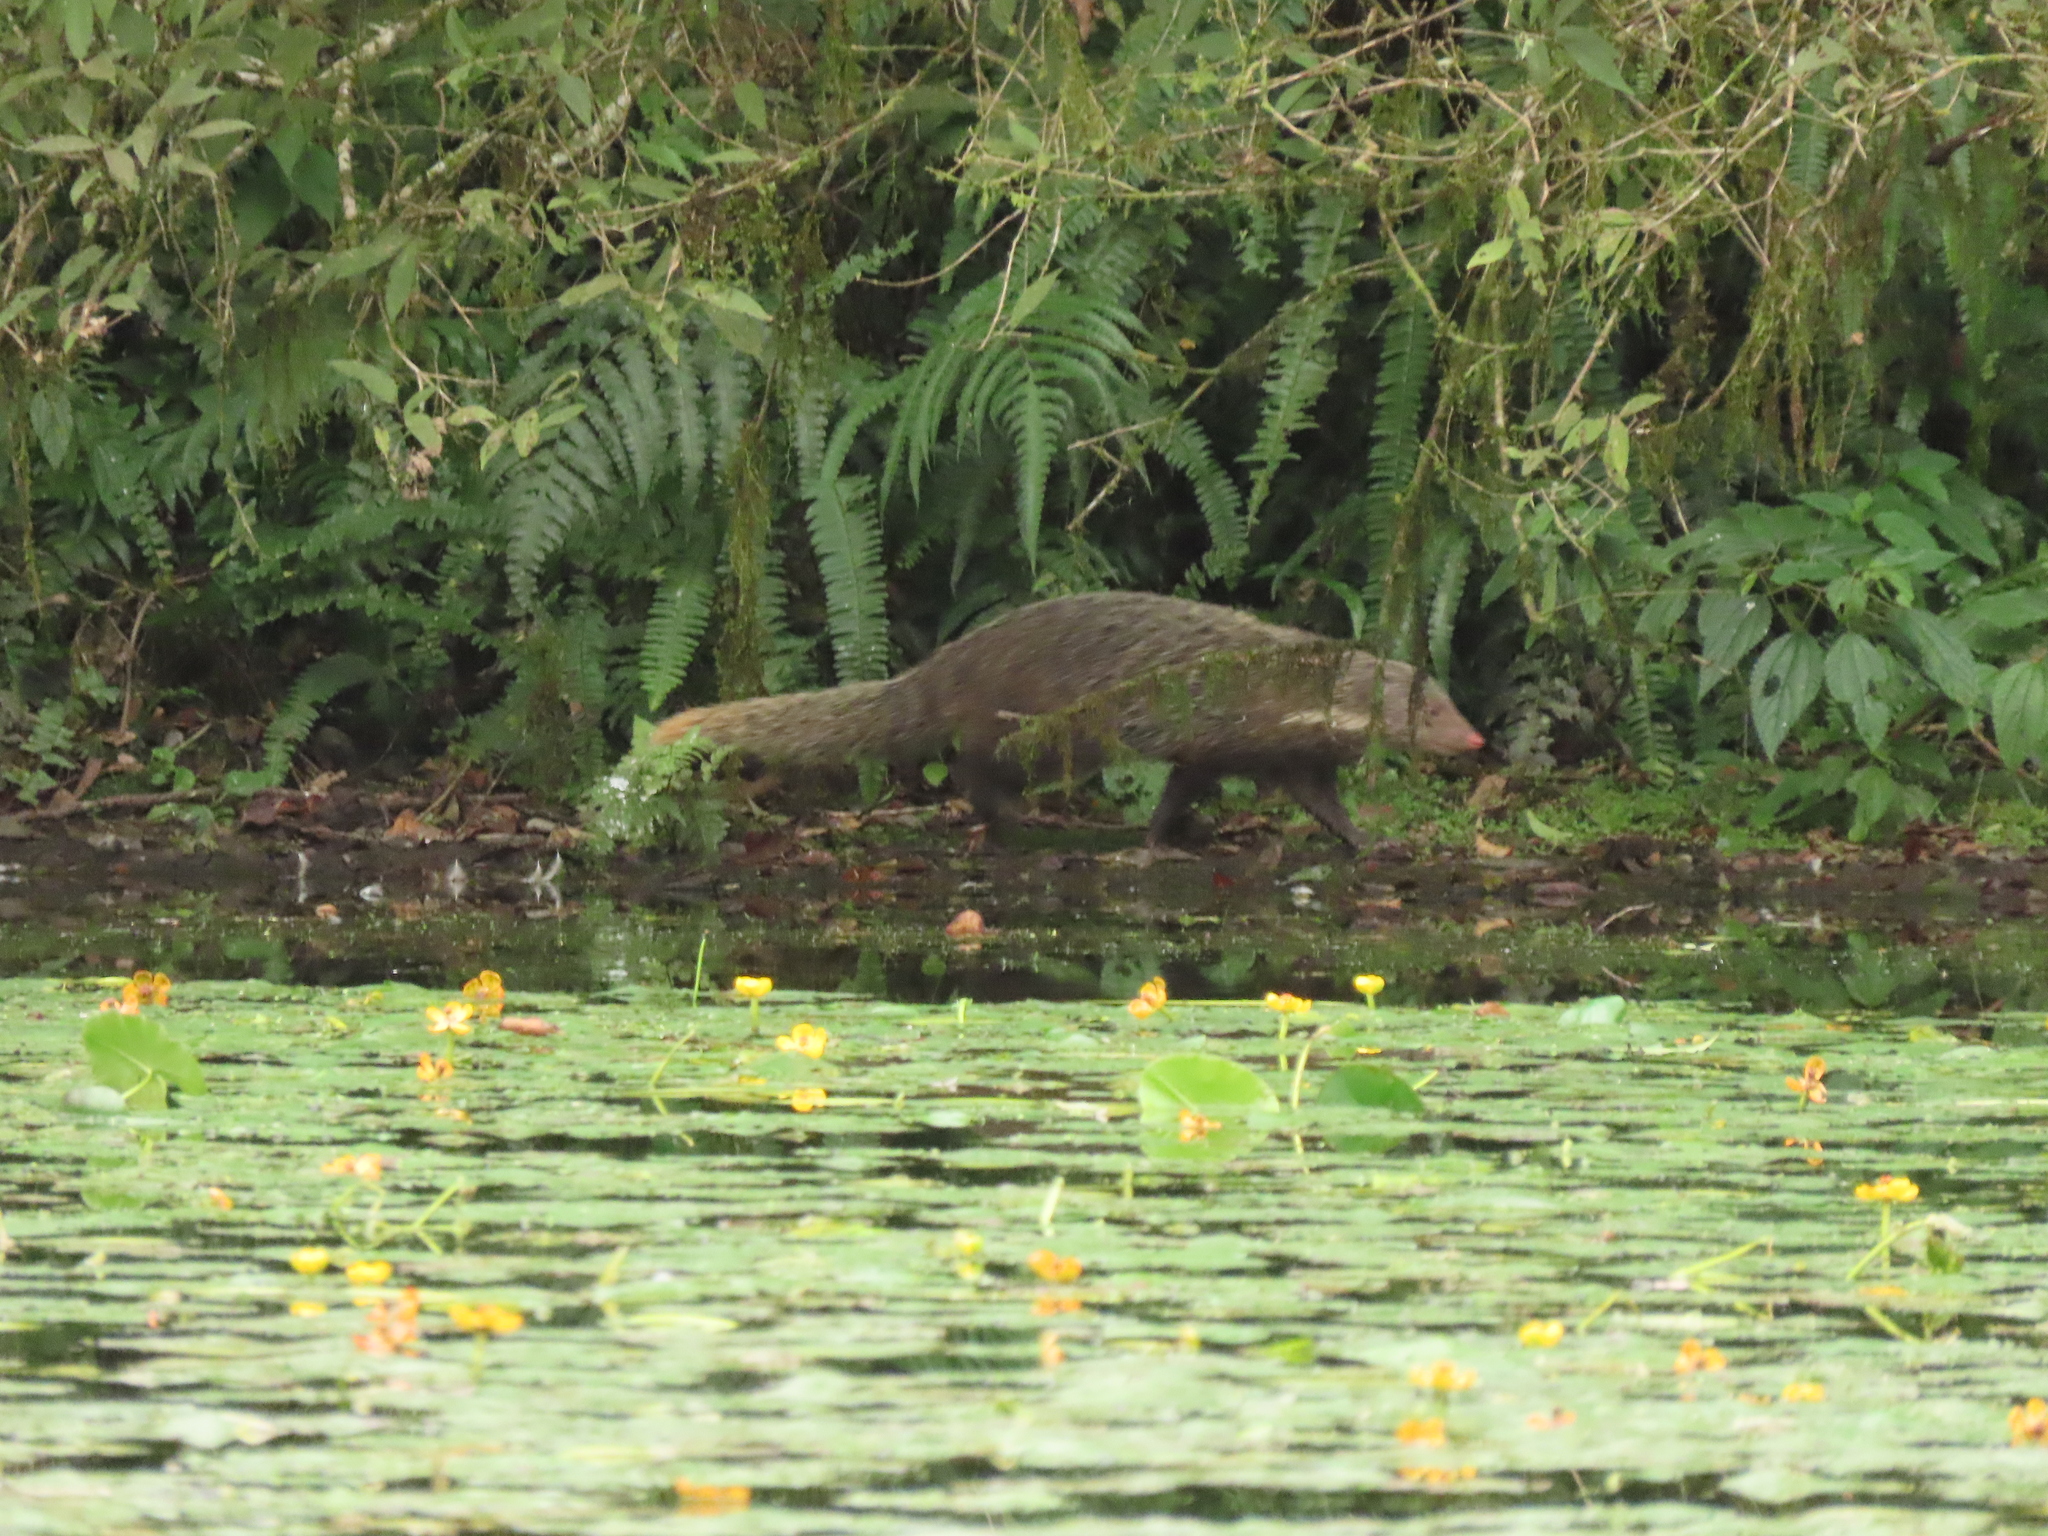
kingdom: Animalia
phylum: Chordata
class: Mammalia
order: Carnivora
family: Herpestidae
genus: Herpestes
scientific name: Herpestes urva
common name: Crab-eating mongoose
